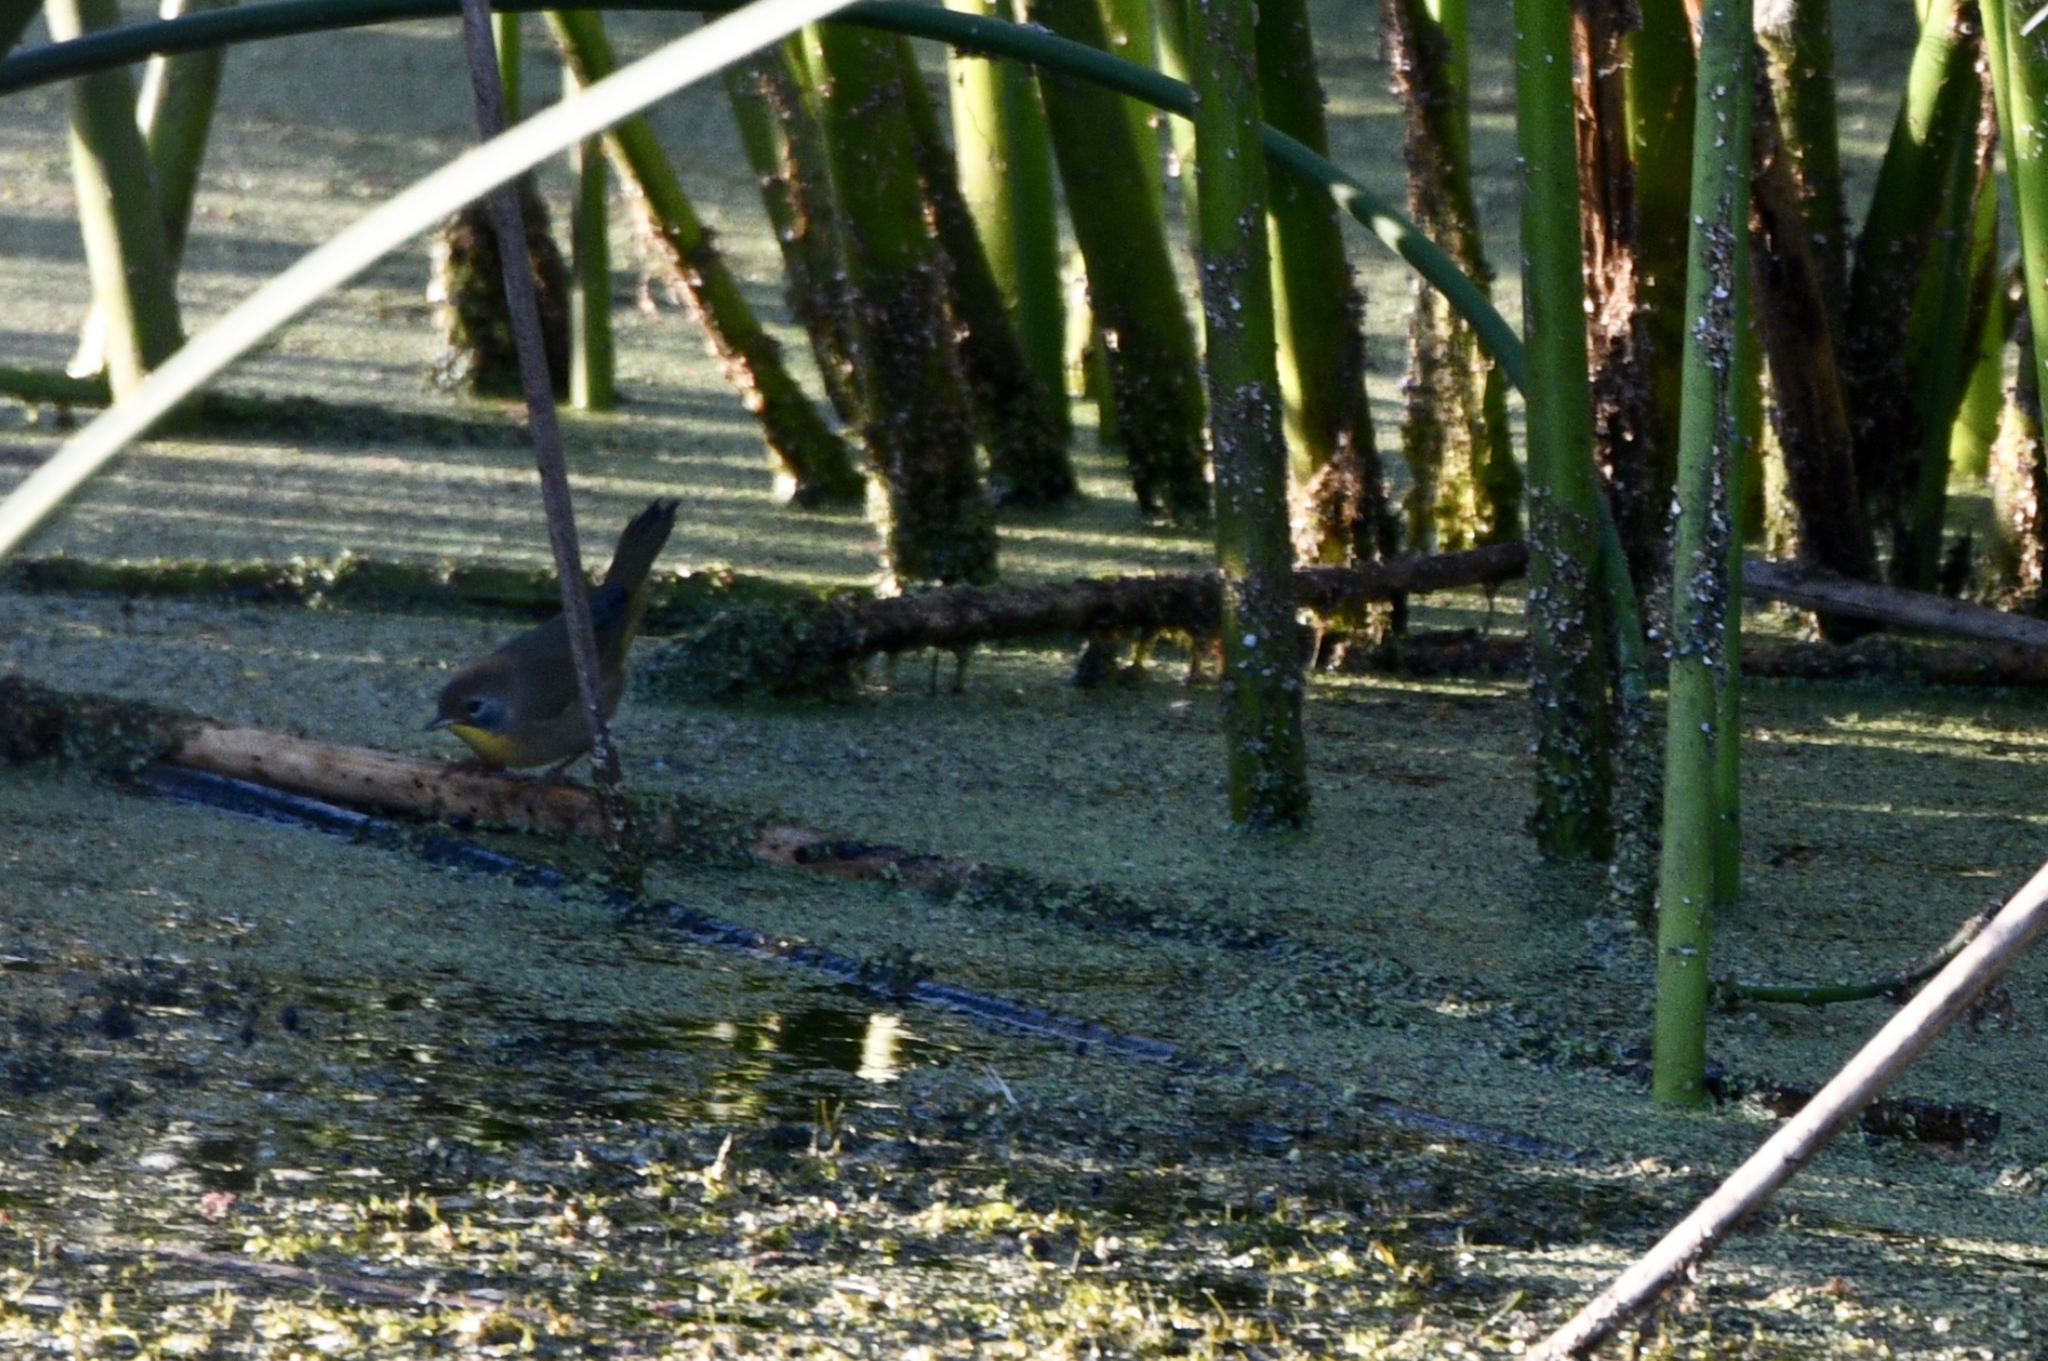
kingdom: Animalia
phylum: Chordata
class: Aves
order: Passeriformes
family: Parulidae
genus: Geothlypis
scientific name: Geothlypis trichas
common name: Common yellowthroat
